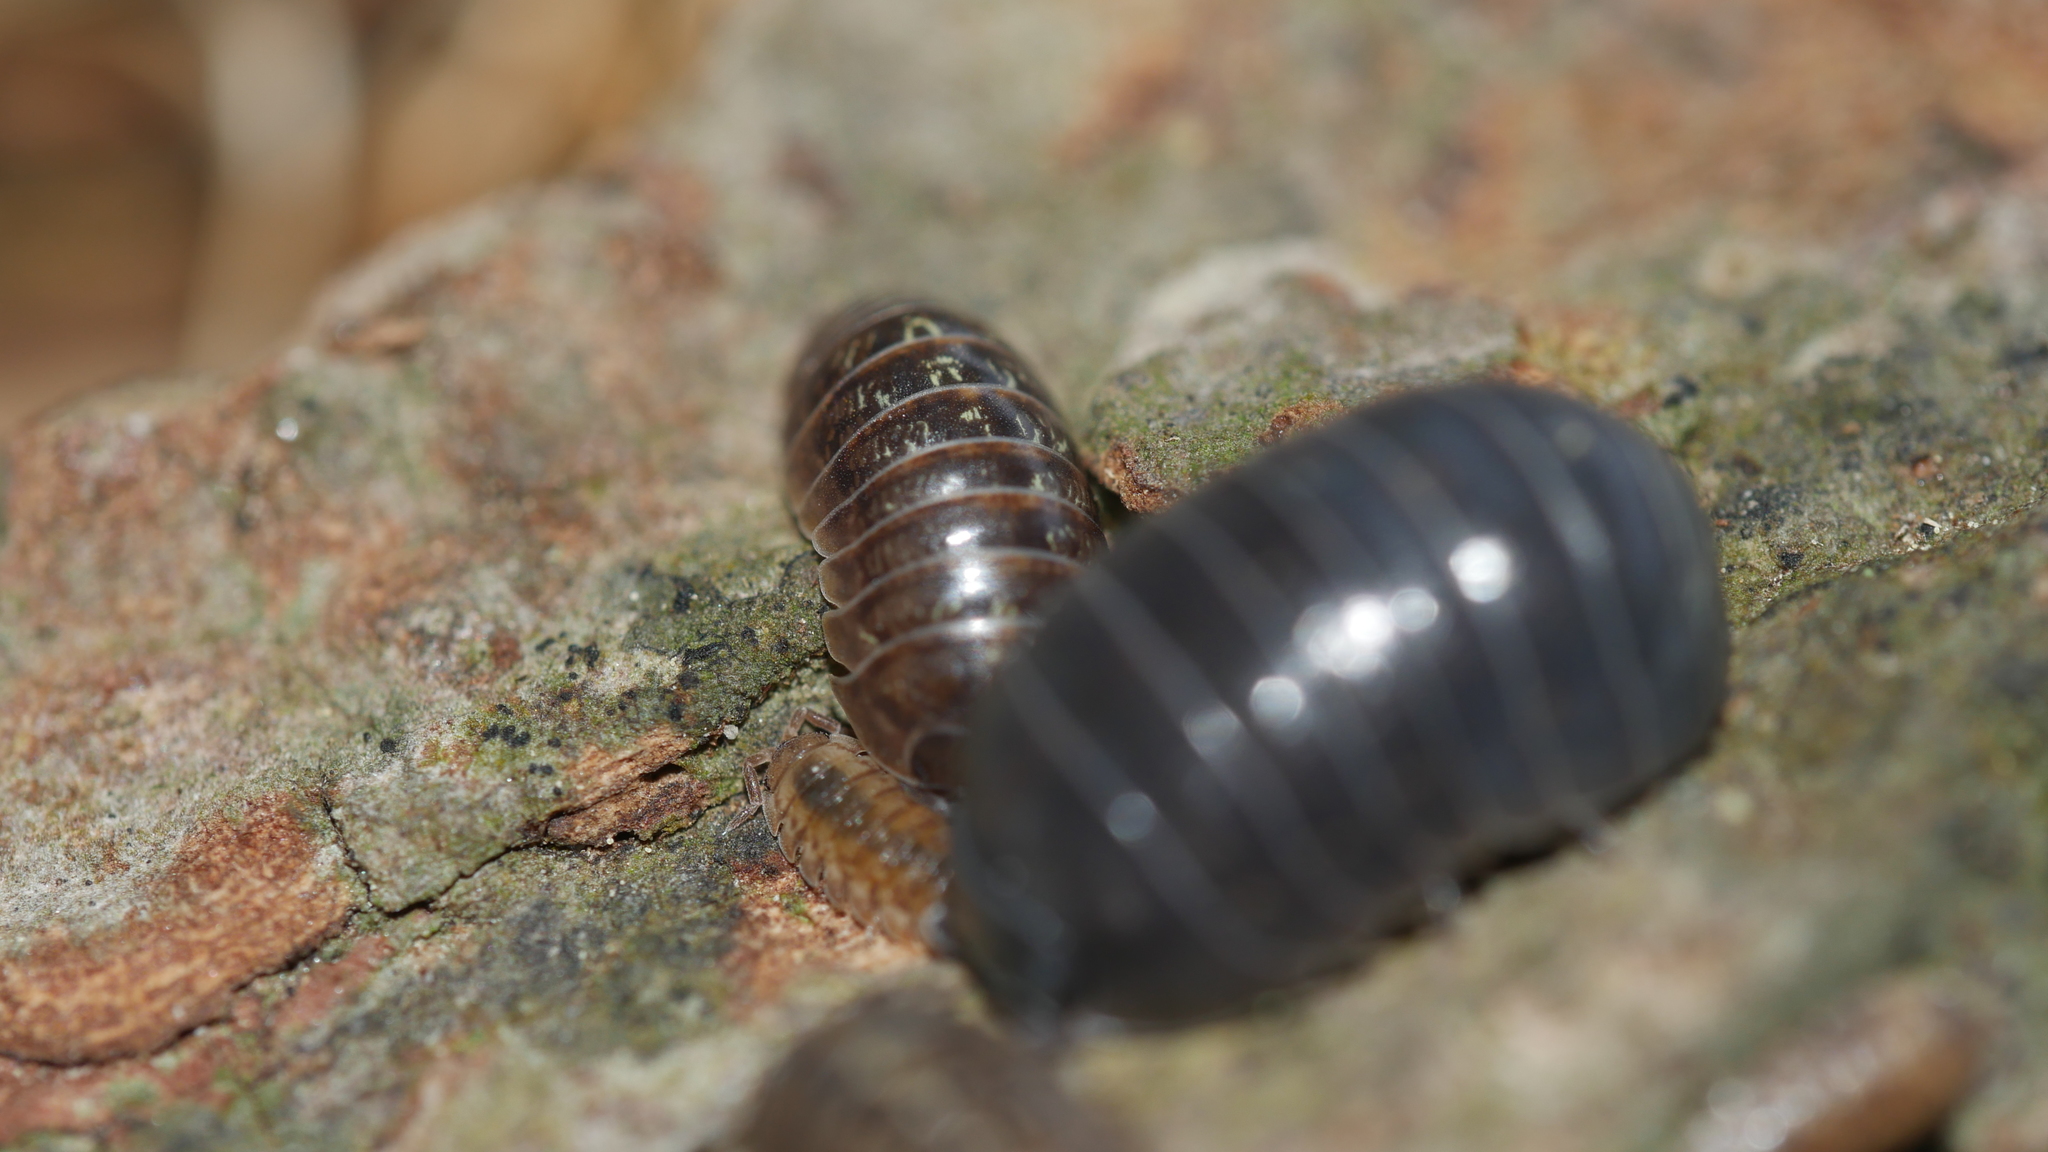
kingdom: Animalia
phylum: Arthropoda
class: Malacostraca
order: Isopoda
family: Armadillidiidae
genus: Armadillidium
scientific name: Armadillidium vulgare
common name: Common pill woodlouse
